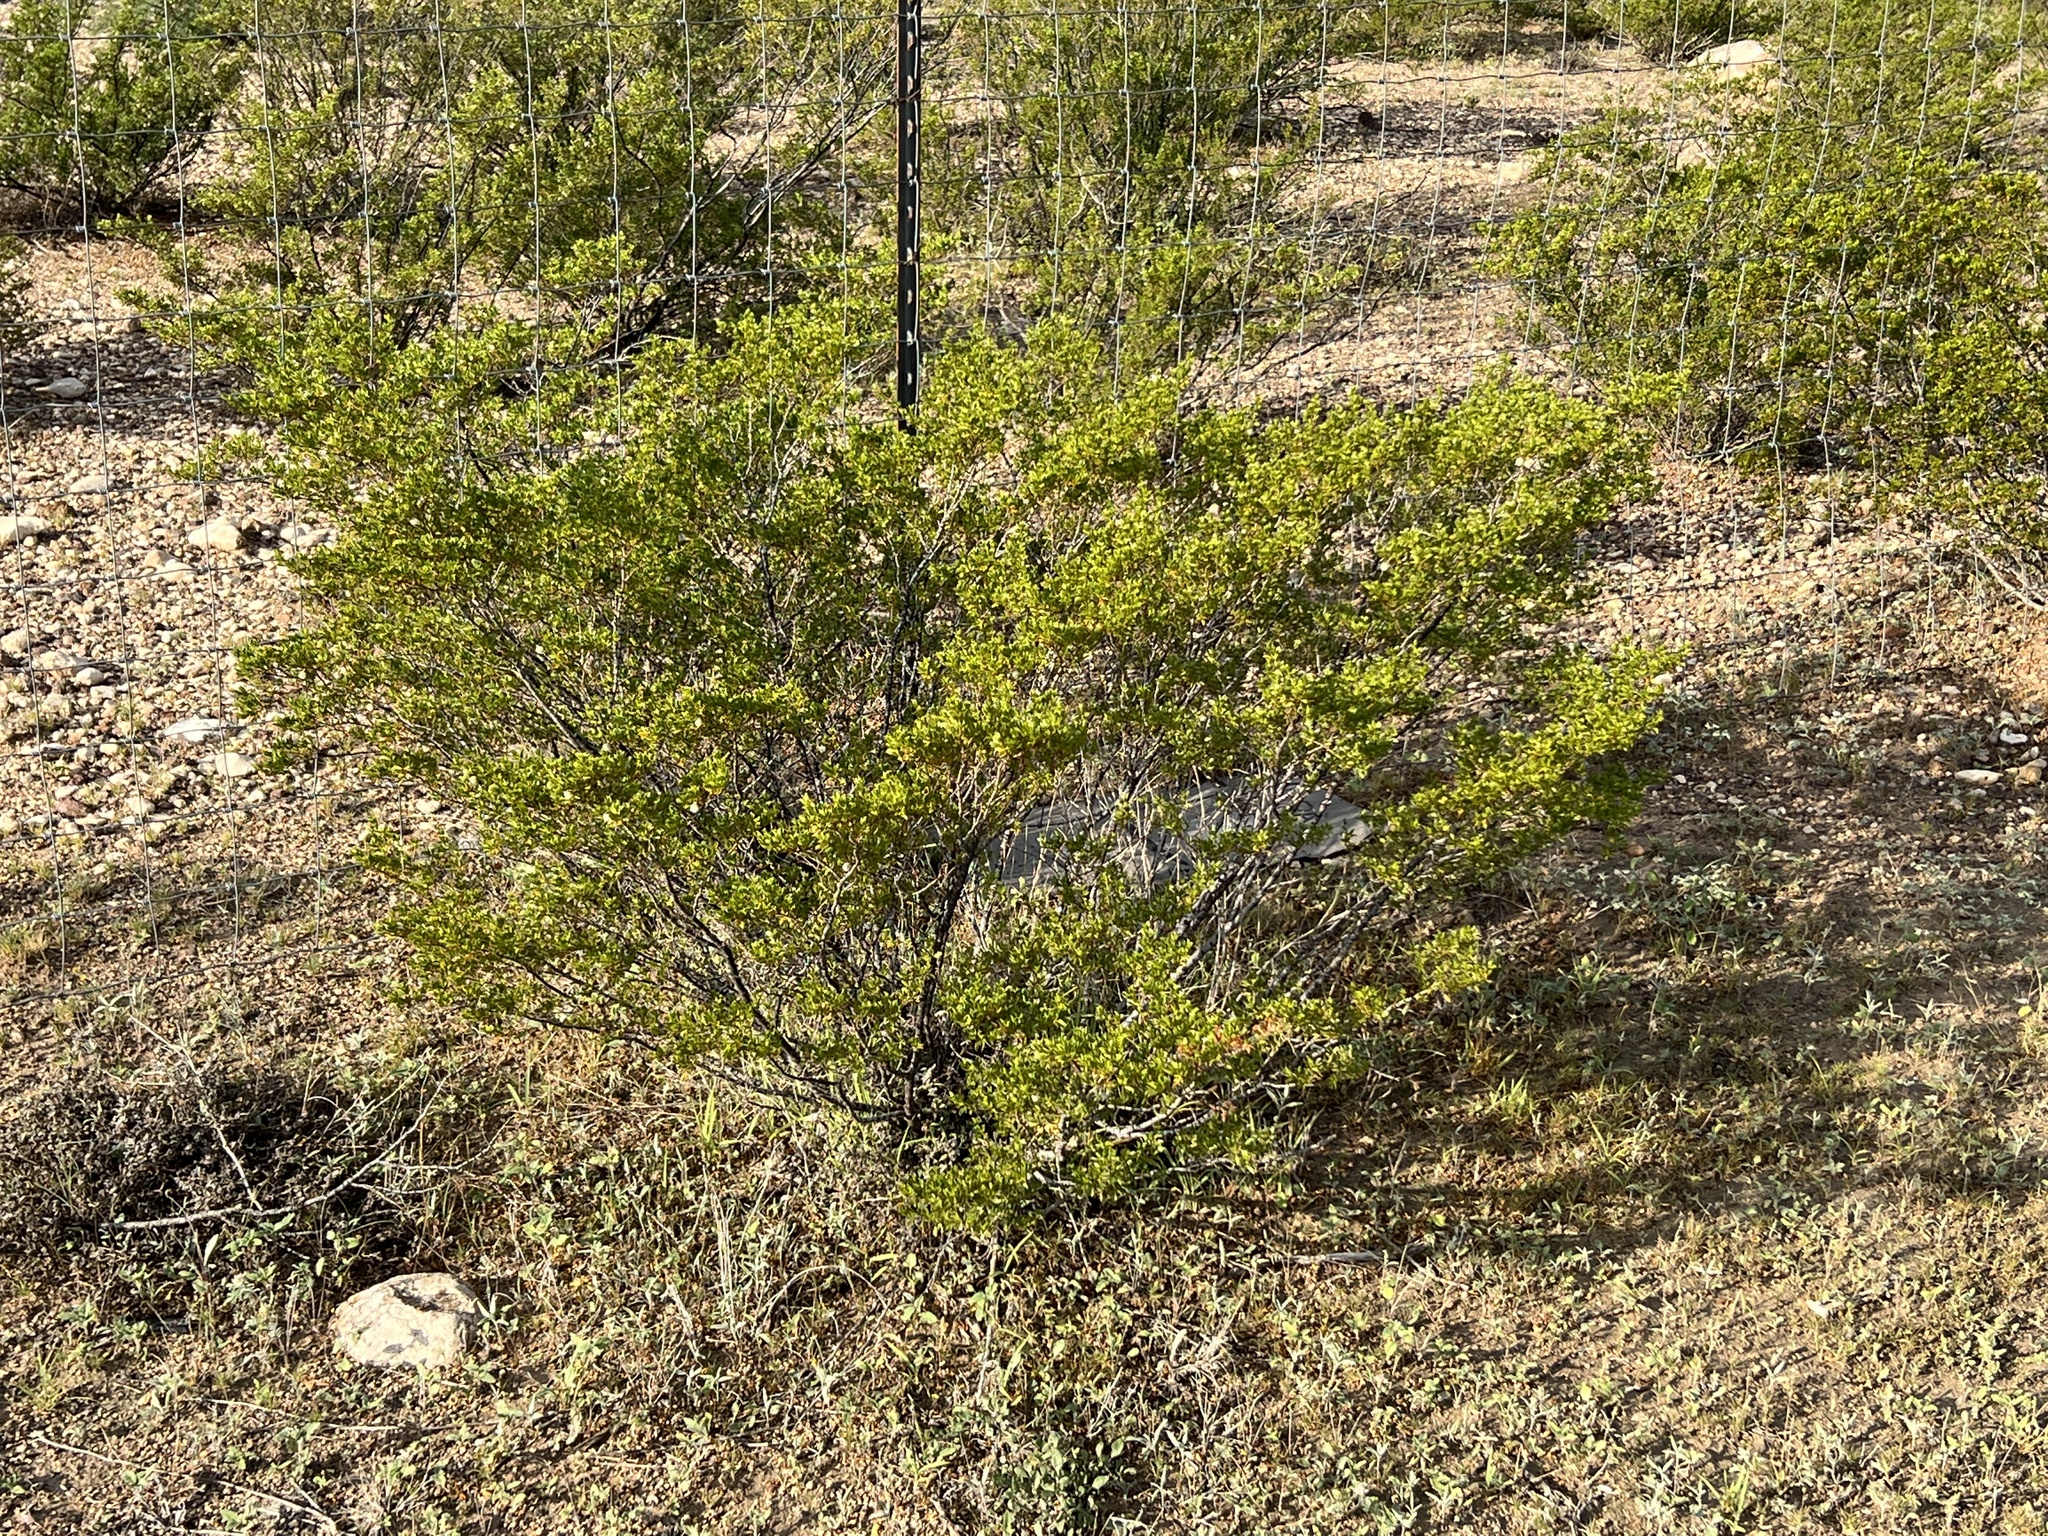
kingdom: Plantae
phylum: Tracheophyta
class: Magnoliopsida
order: Zygophyllales
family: Zygophyllaceae
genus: Larrea
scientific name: Larrea tridentata
